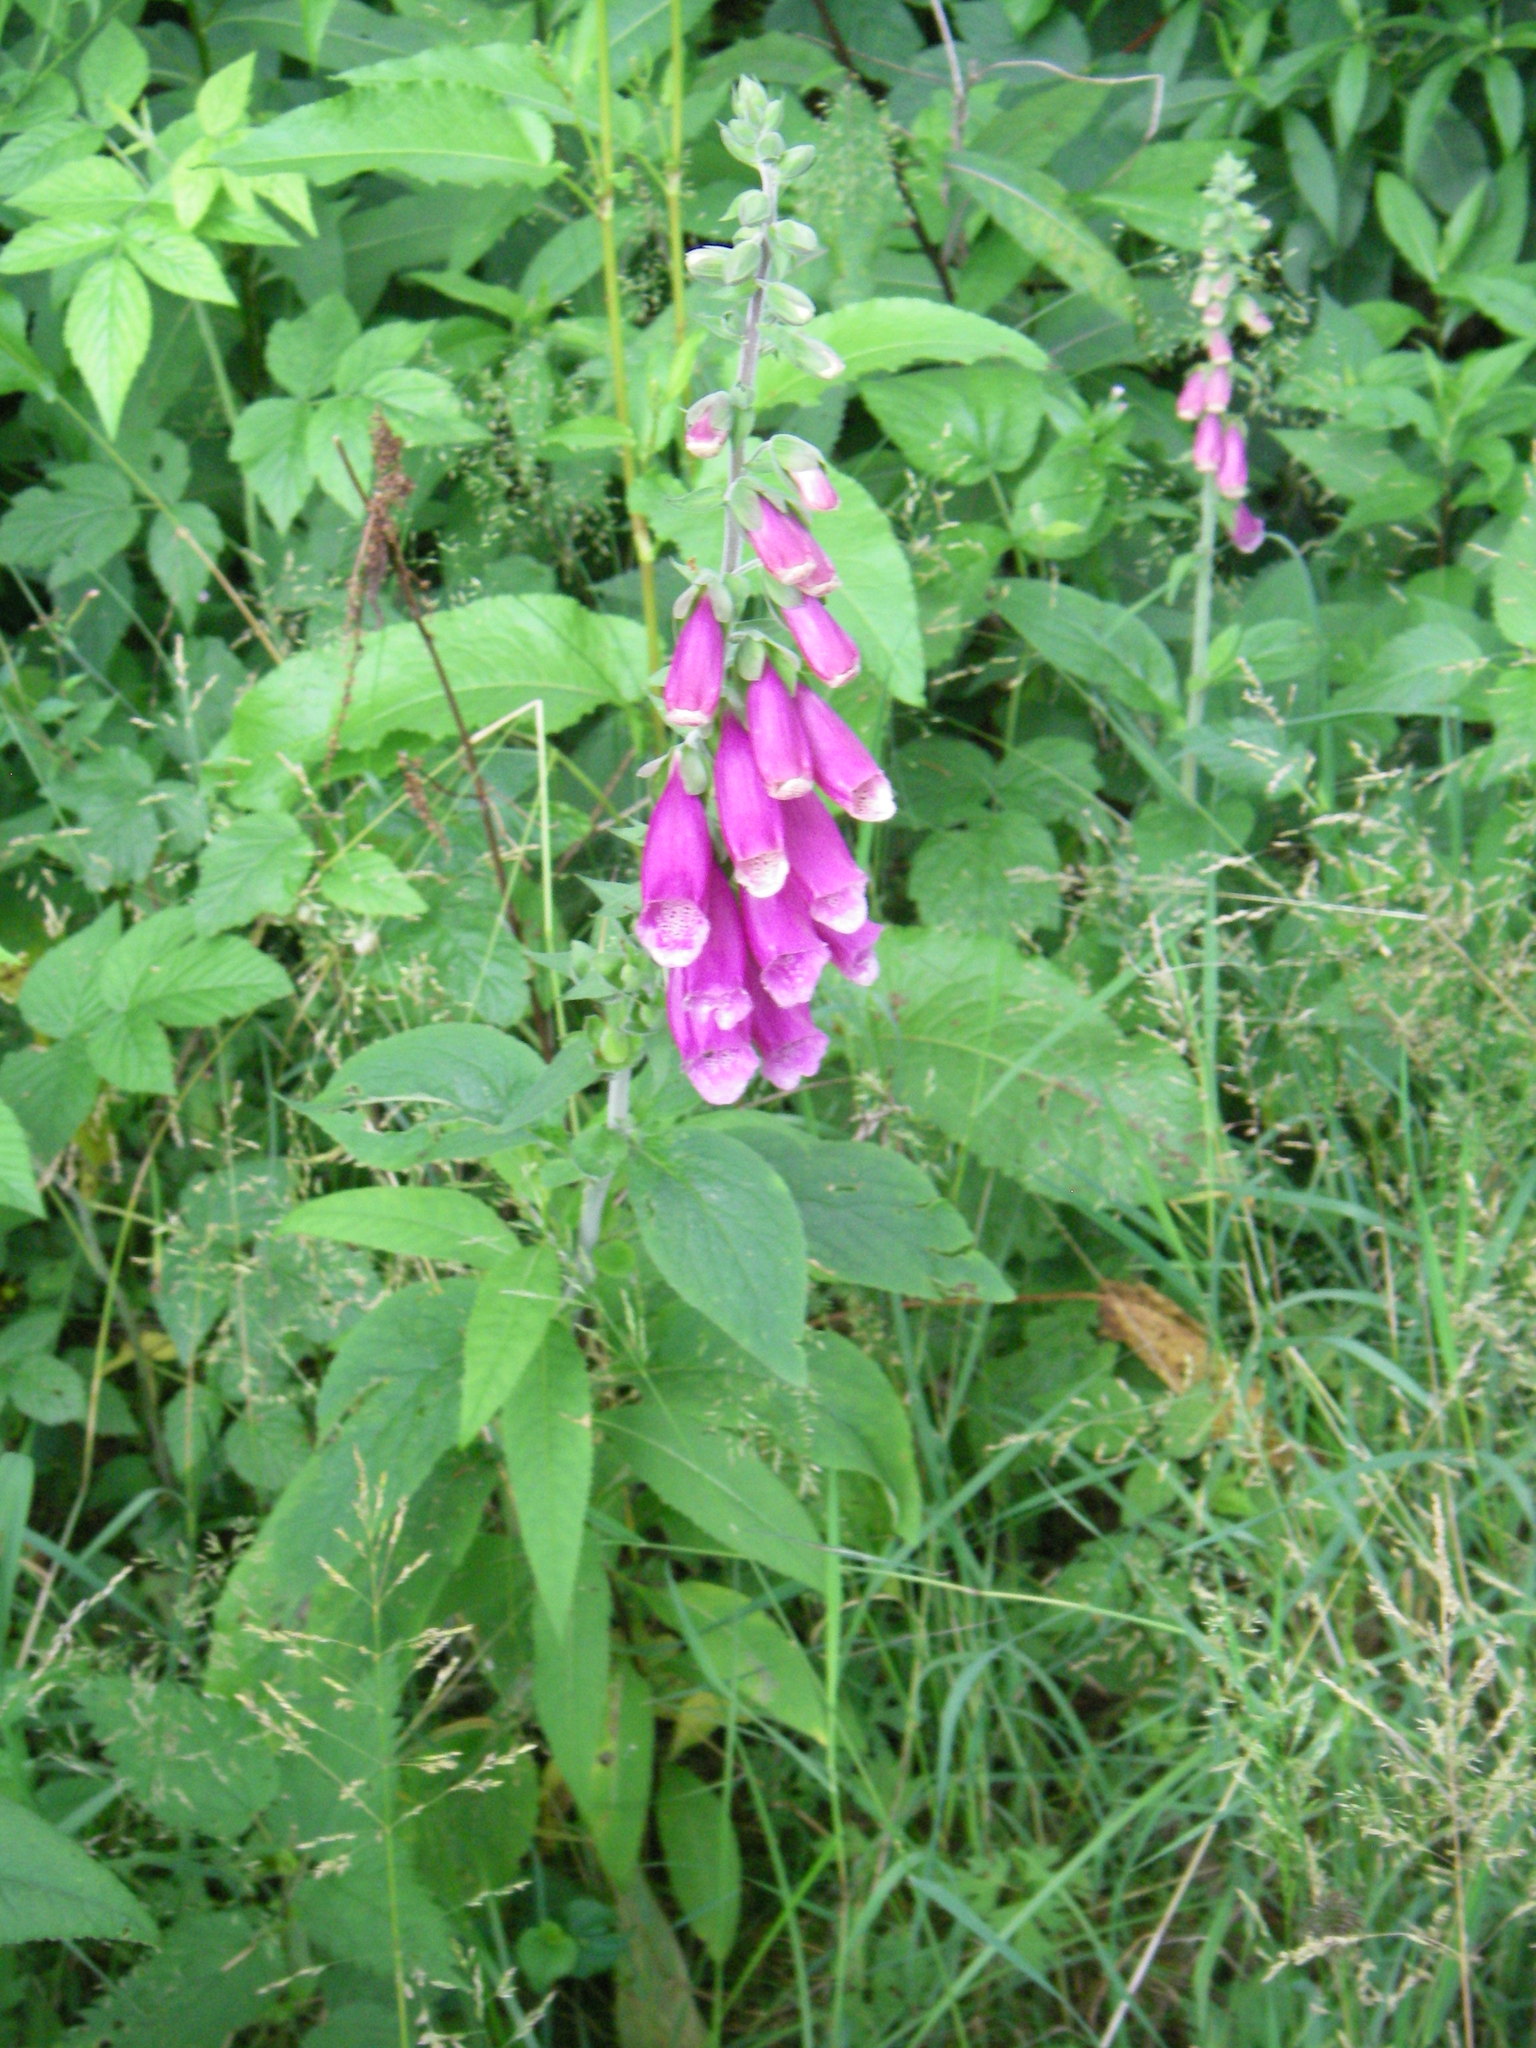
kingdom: Plantae
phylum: Tracheophyta
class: Magnoliopsida
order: Lamiales
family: Plantaginaceae
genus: Digitalis
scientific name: Digitalis purpurea
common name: Foxglove
